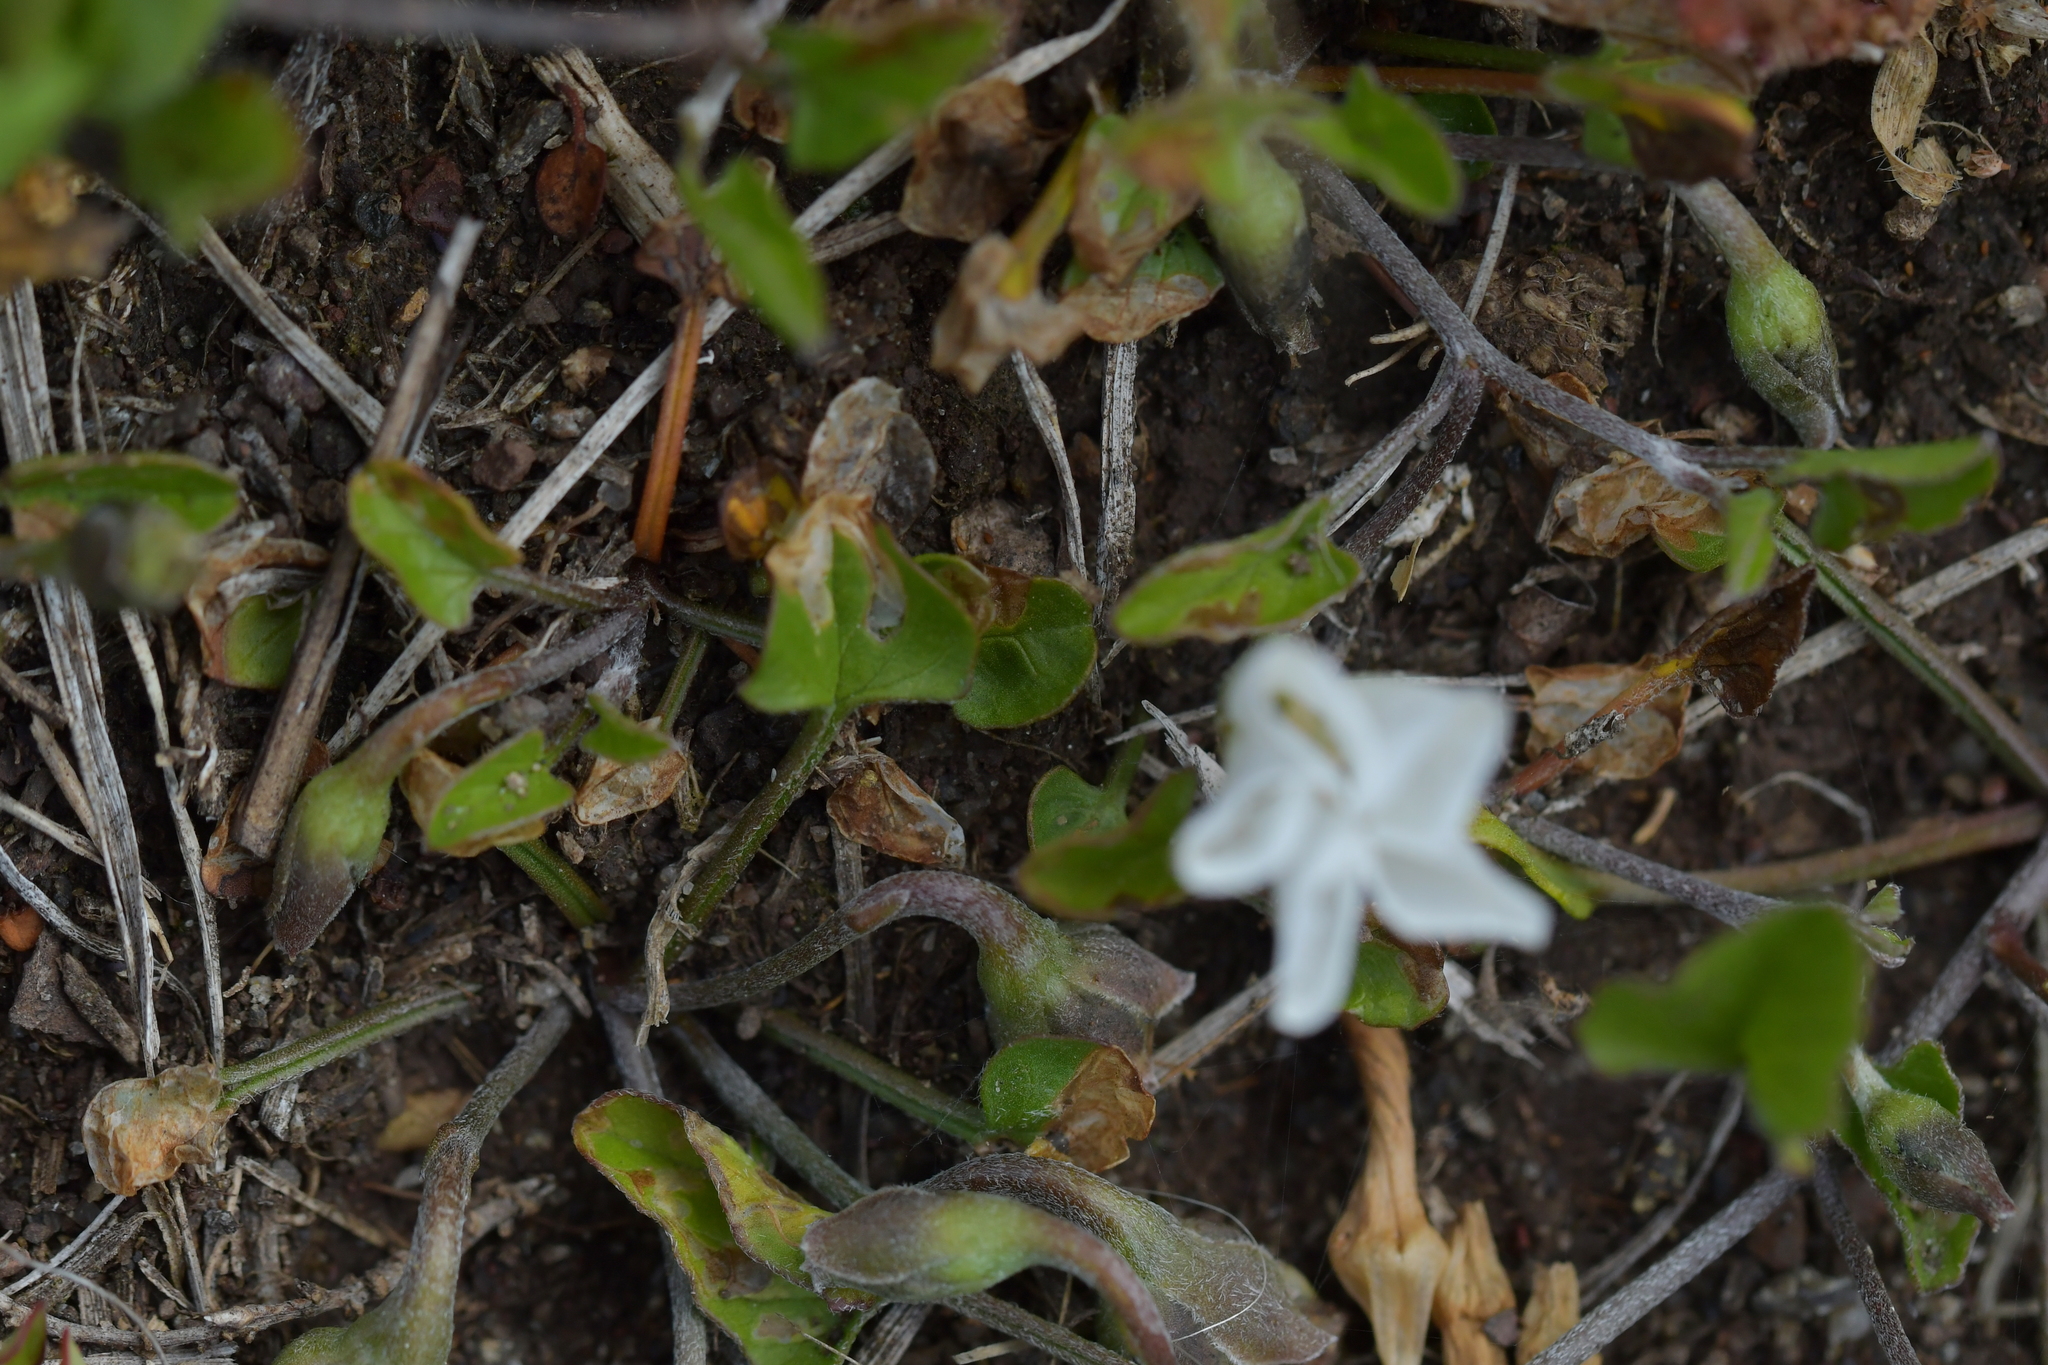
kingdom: Plantae
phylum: Tracheophyta
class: Magnoliopsida
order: Solanales
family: Convolvulaceae
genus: Convolvulus
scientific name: Convolvulus waitaha
